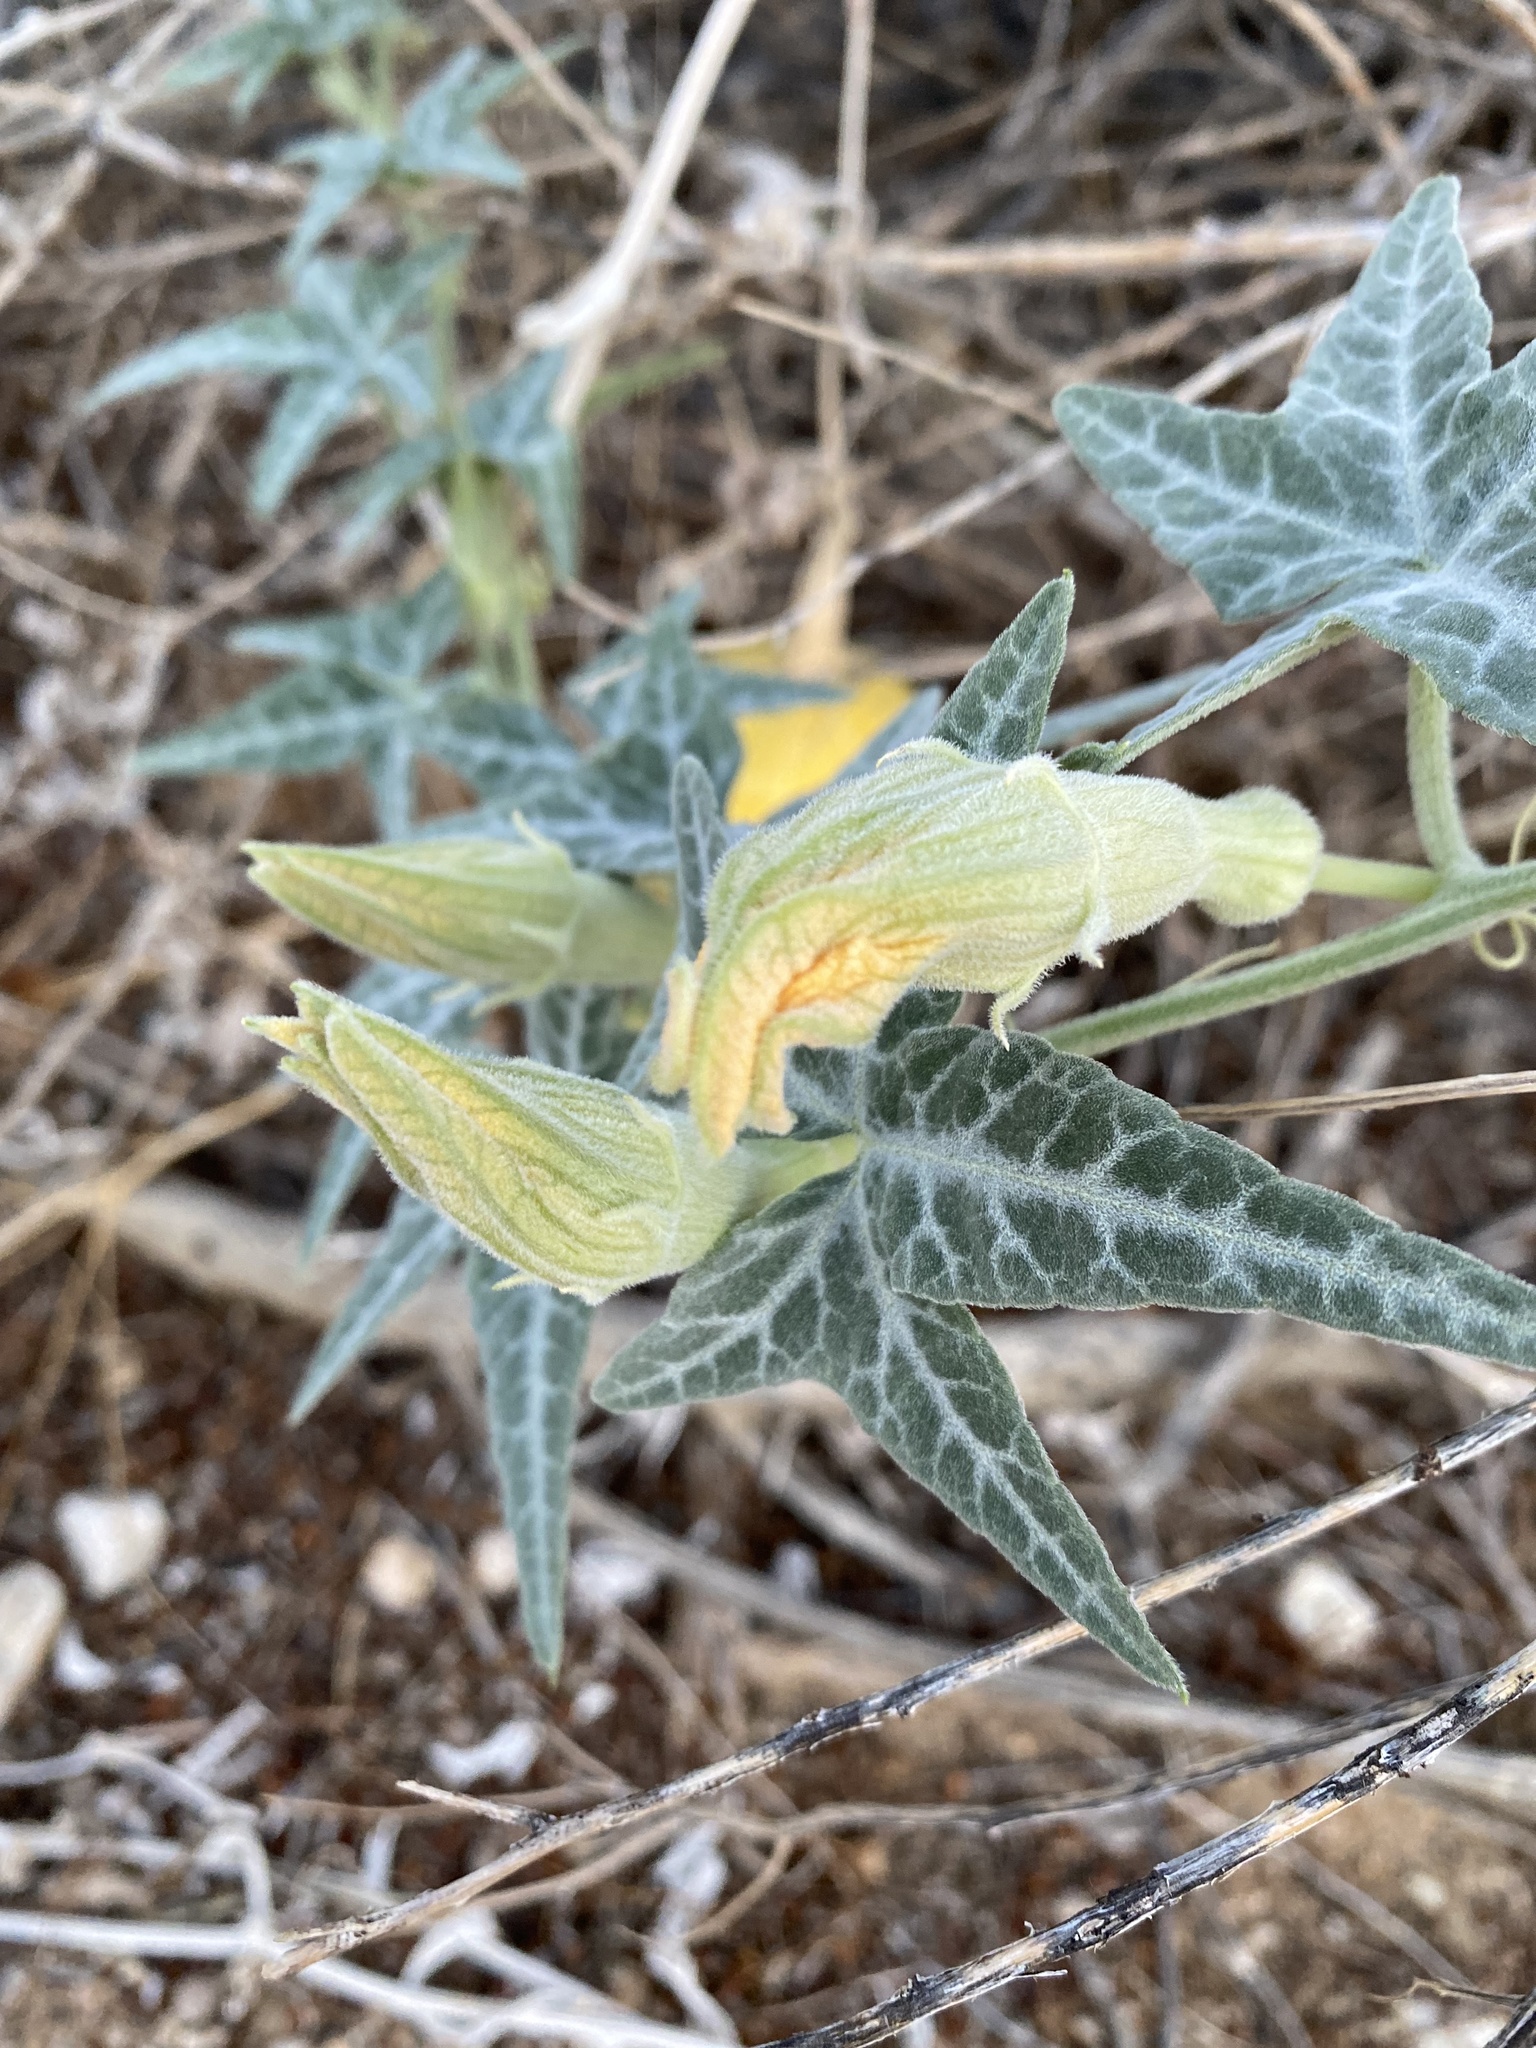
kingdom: Plantae
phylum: Tracheophyta
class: Magnoliopsida
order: Cucurbitales
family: Cucurbitaceae
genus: Cucurbita
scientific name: Cucurbita palmata
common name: Coyote-melon
